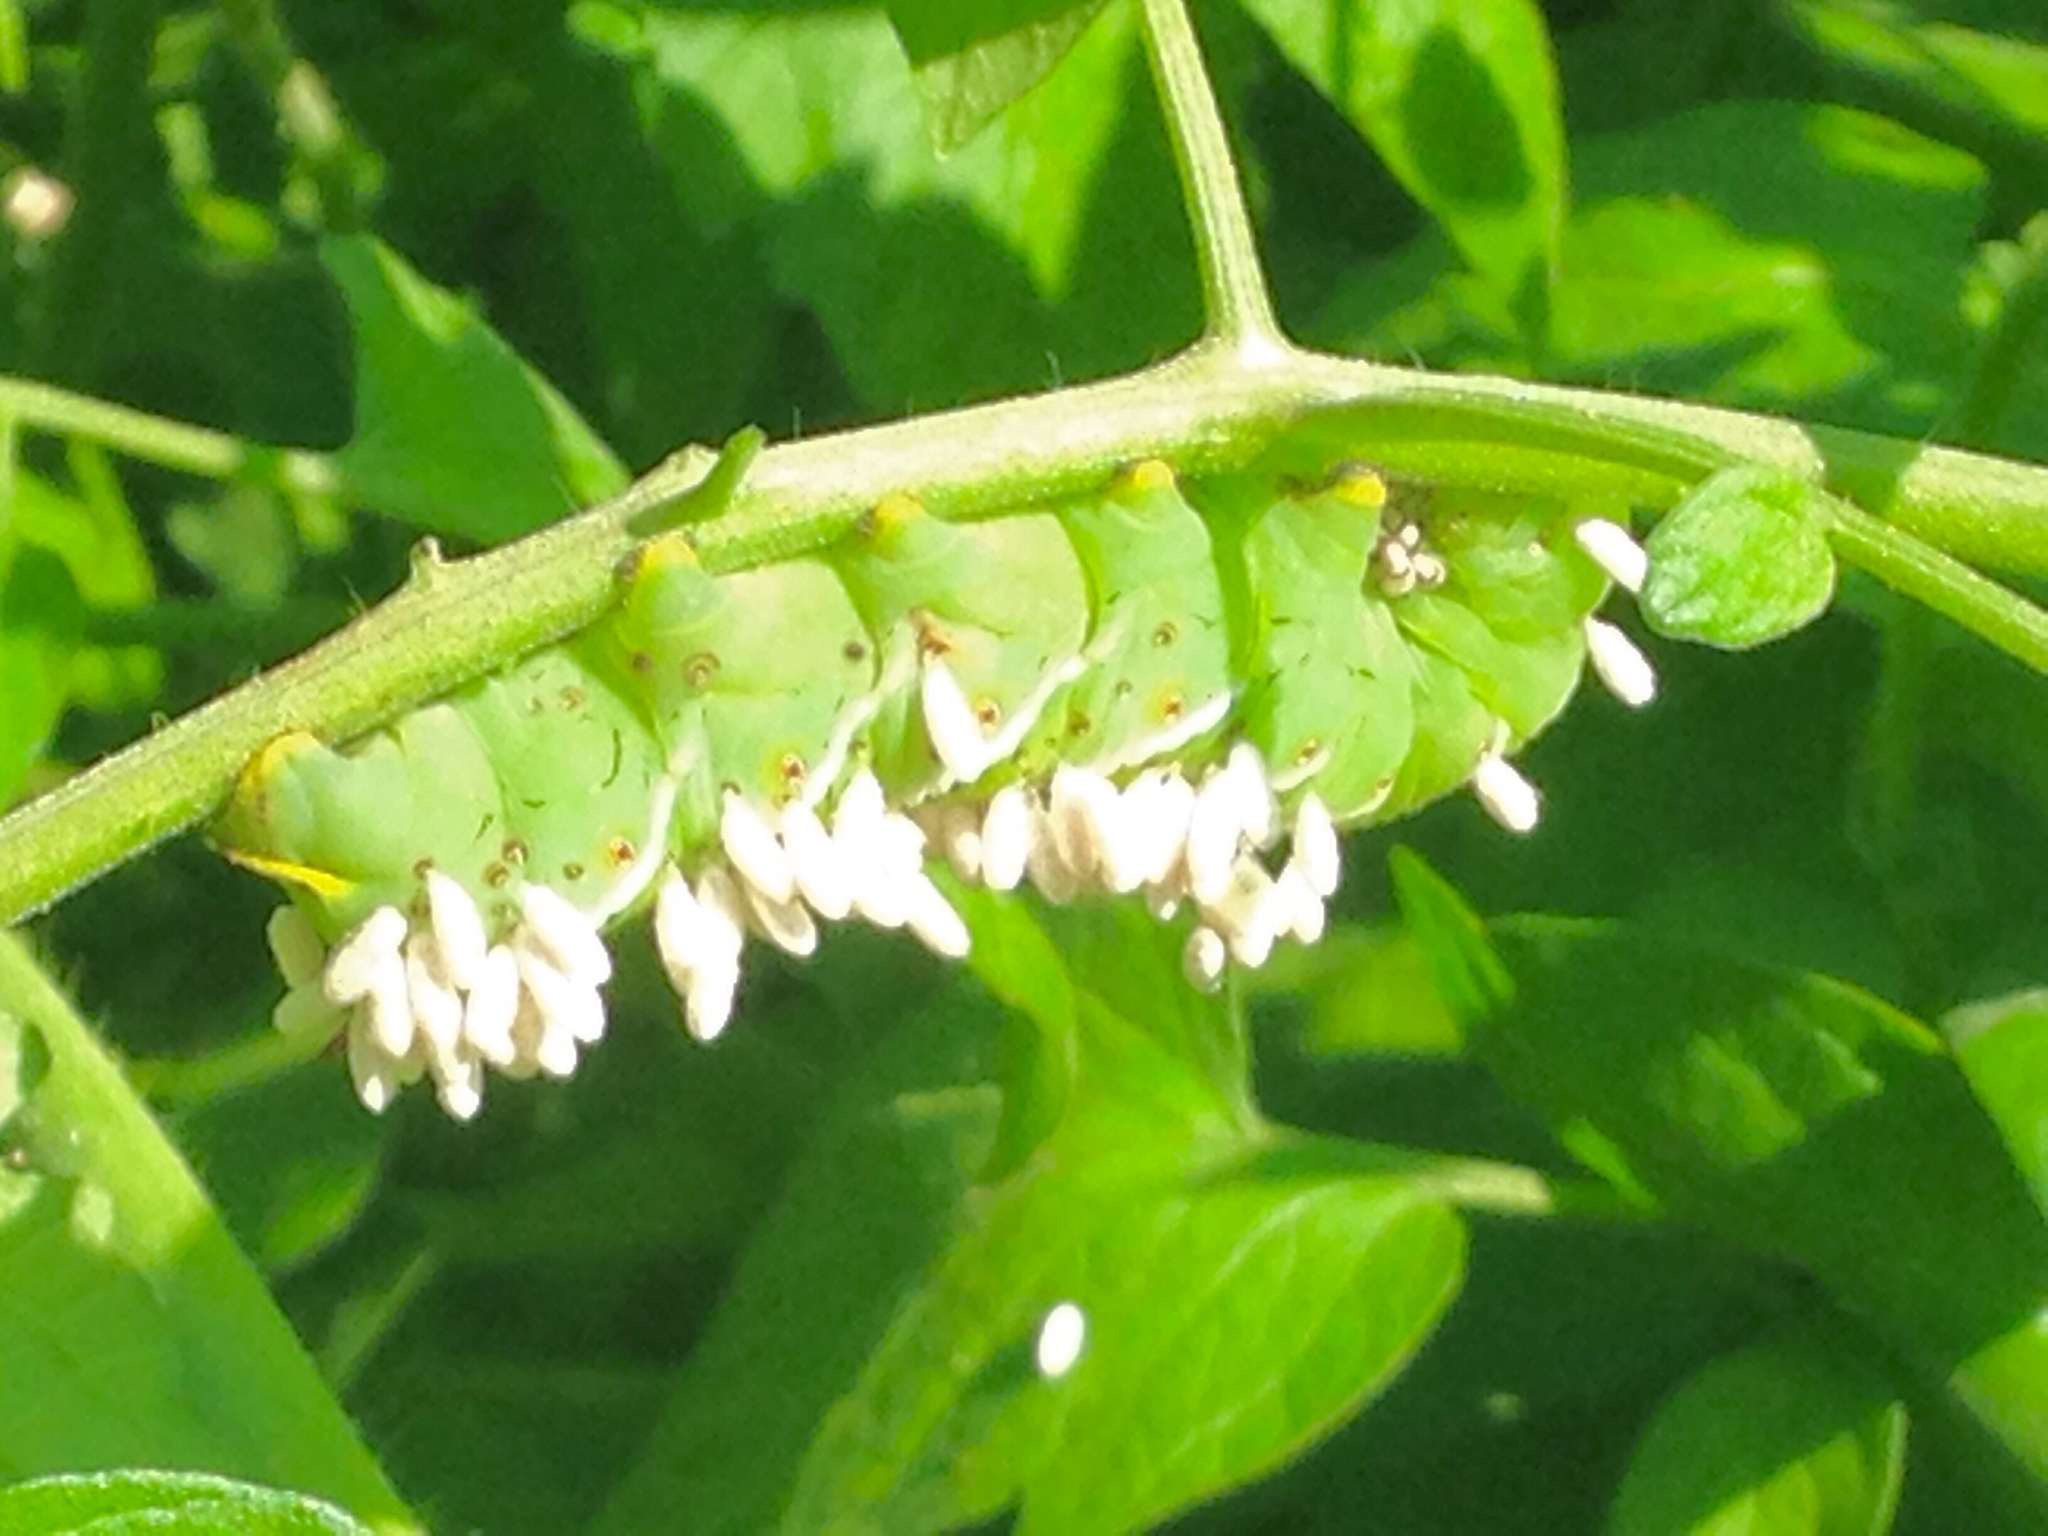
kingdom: Animalia
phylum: Arthropoda
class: Insecta
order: Hymenoptera
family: Braconidae
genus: Cotesia
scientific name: Cotesia congregata
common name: Hornworm parasitoid wasp
